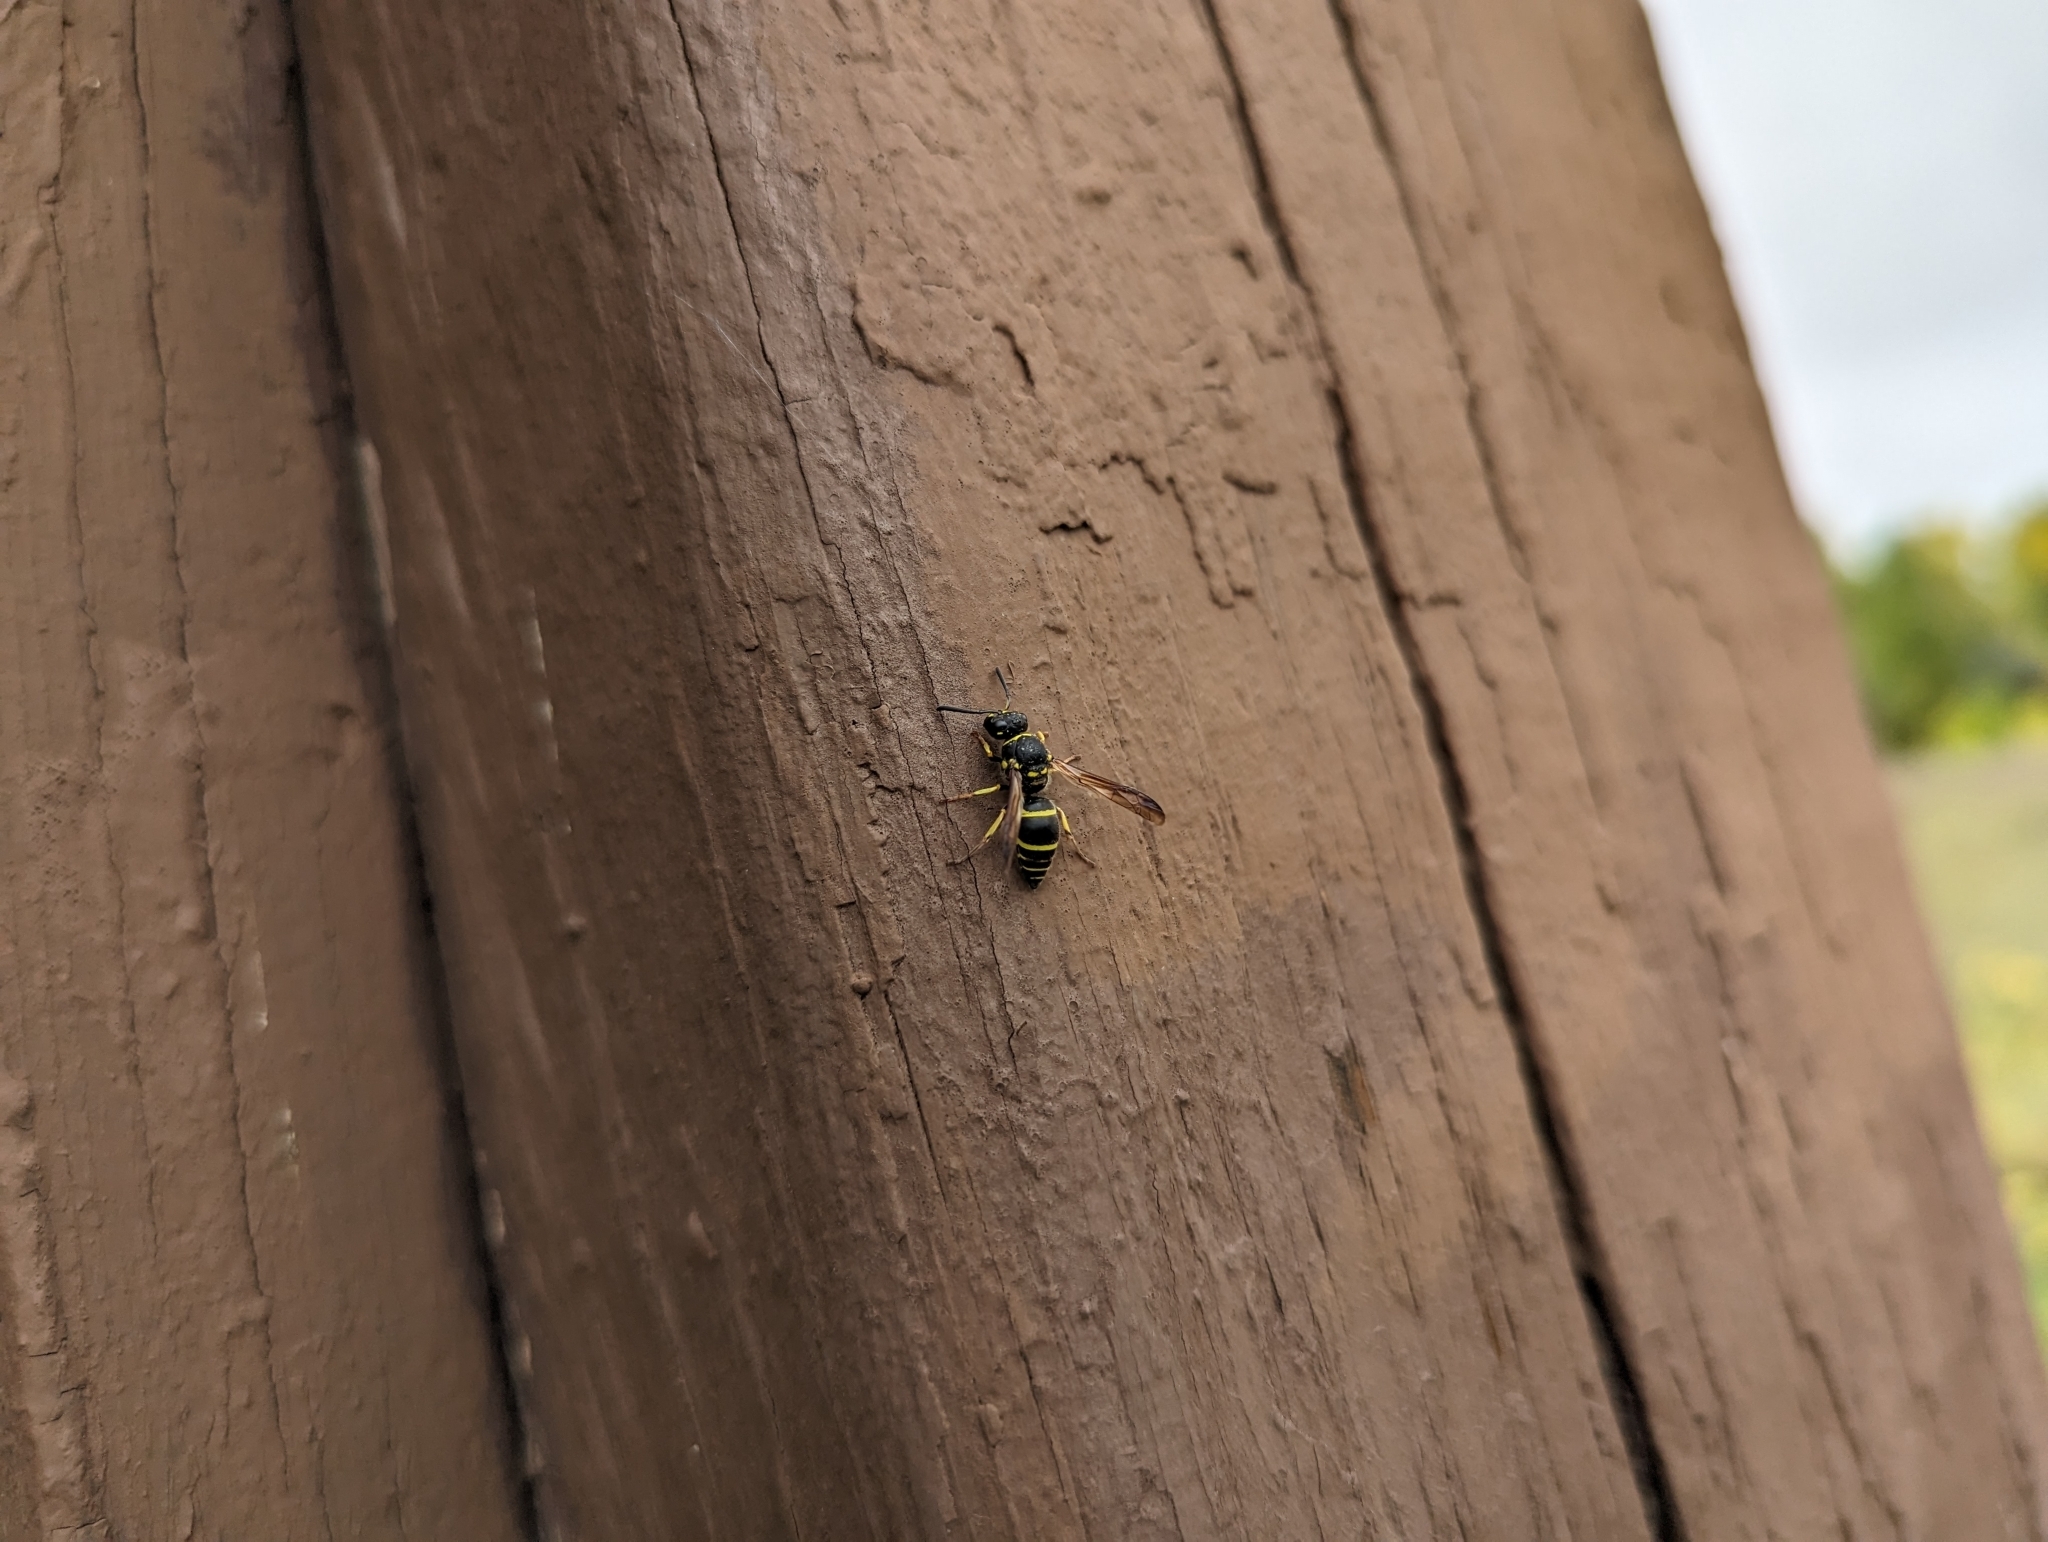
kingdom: Animalia
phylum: Arthropoda
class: Insecta
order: Hymenoptera
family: Vespidae
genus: Ancistrocerus
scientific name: Ancistrocerus catskill
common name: Vespid wasp
